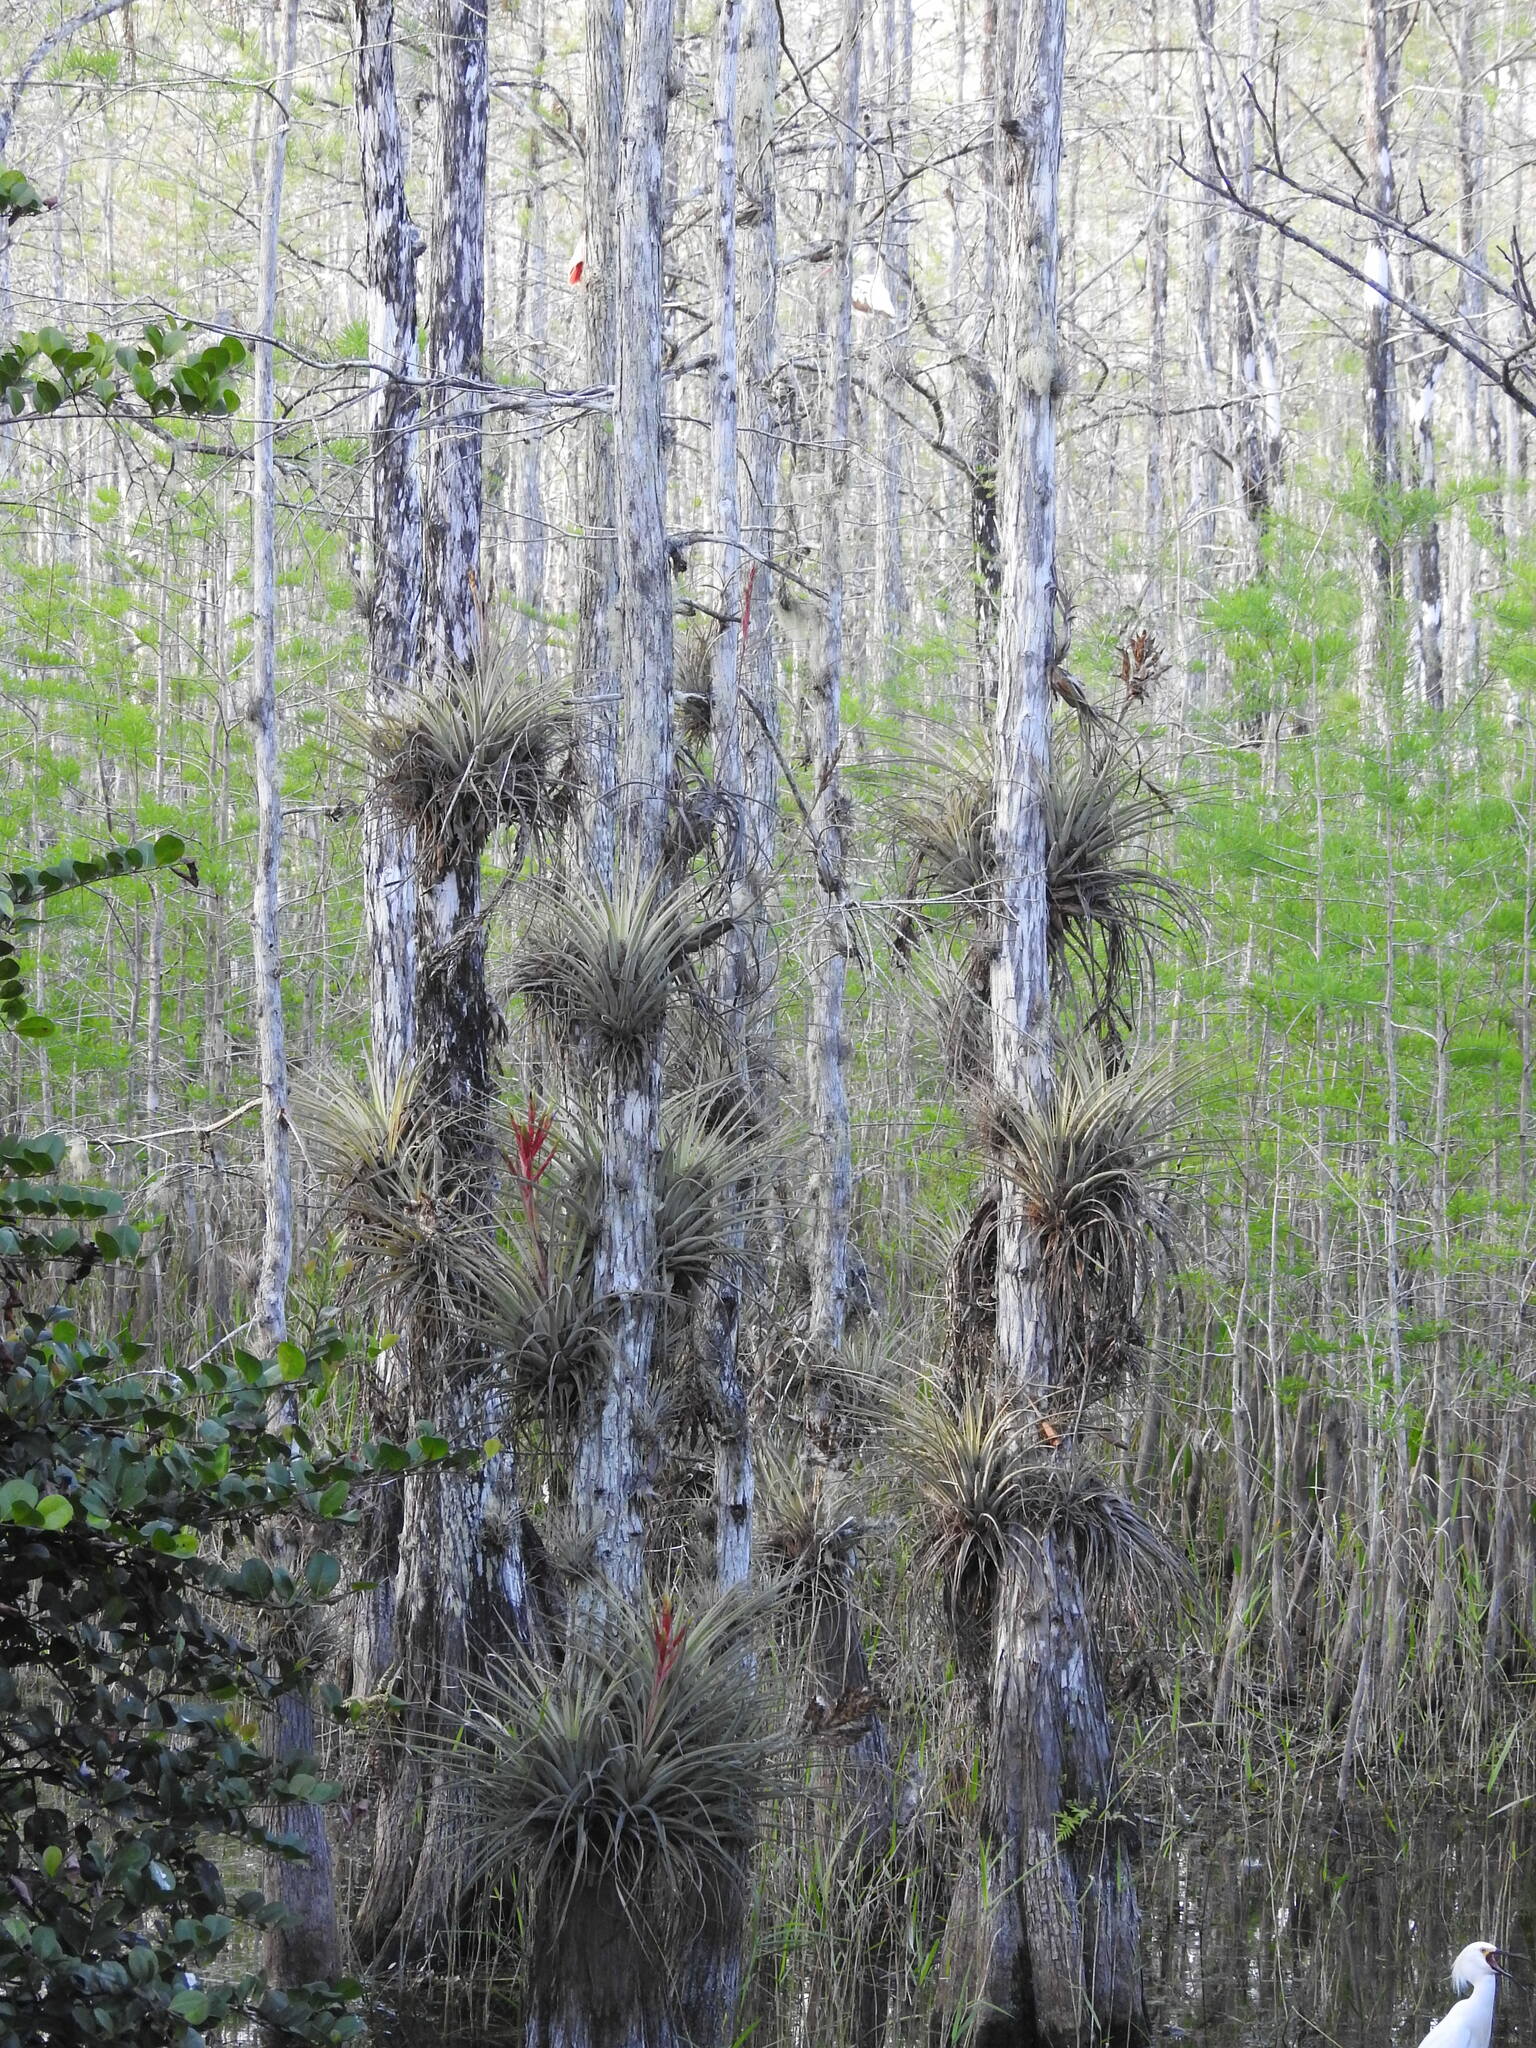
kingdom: Plantae
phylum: Tracheophyta
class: Liliopsida
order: Poales
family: Bromeliaceae
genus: Tillandsia
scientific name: Tillandsia fasciculata
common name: Giant airplant
